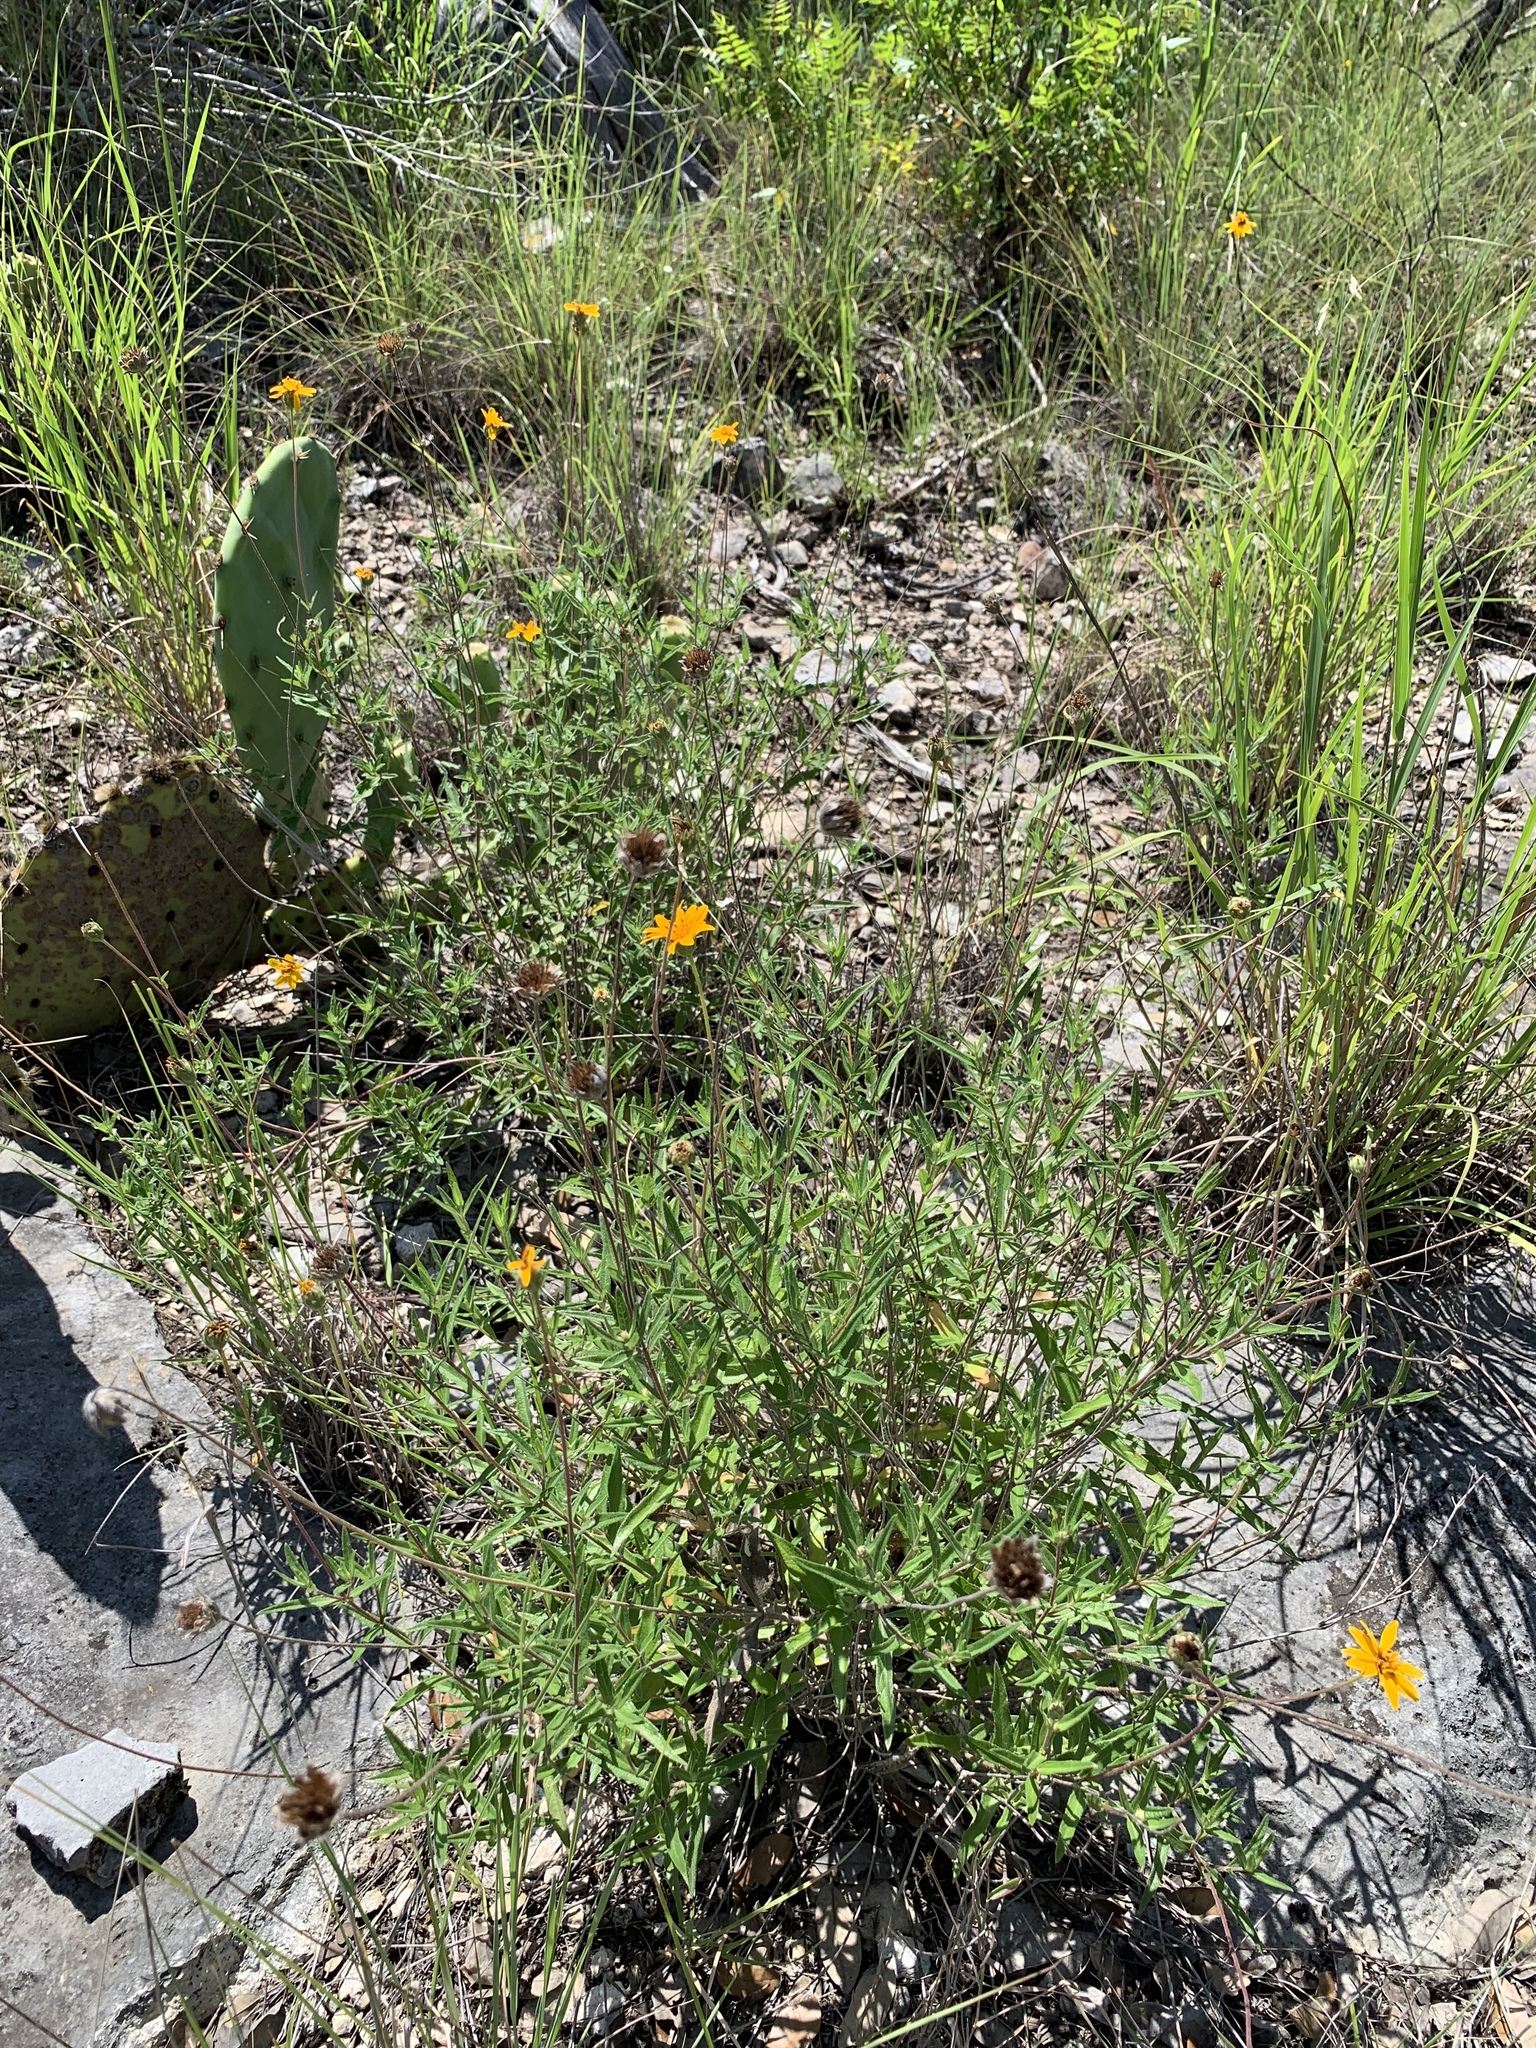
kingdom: Plantae
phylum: Tracheophyta
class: Magnoliopsida
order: Asterales
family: Asteraceae
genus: Wedelia
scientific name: Wedelia acapulcensis
